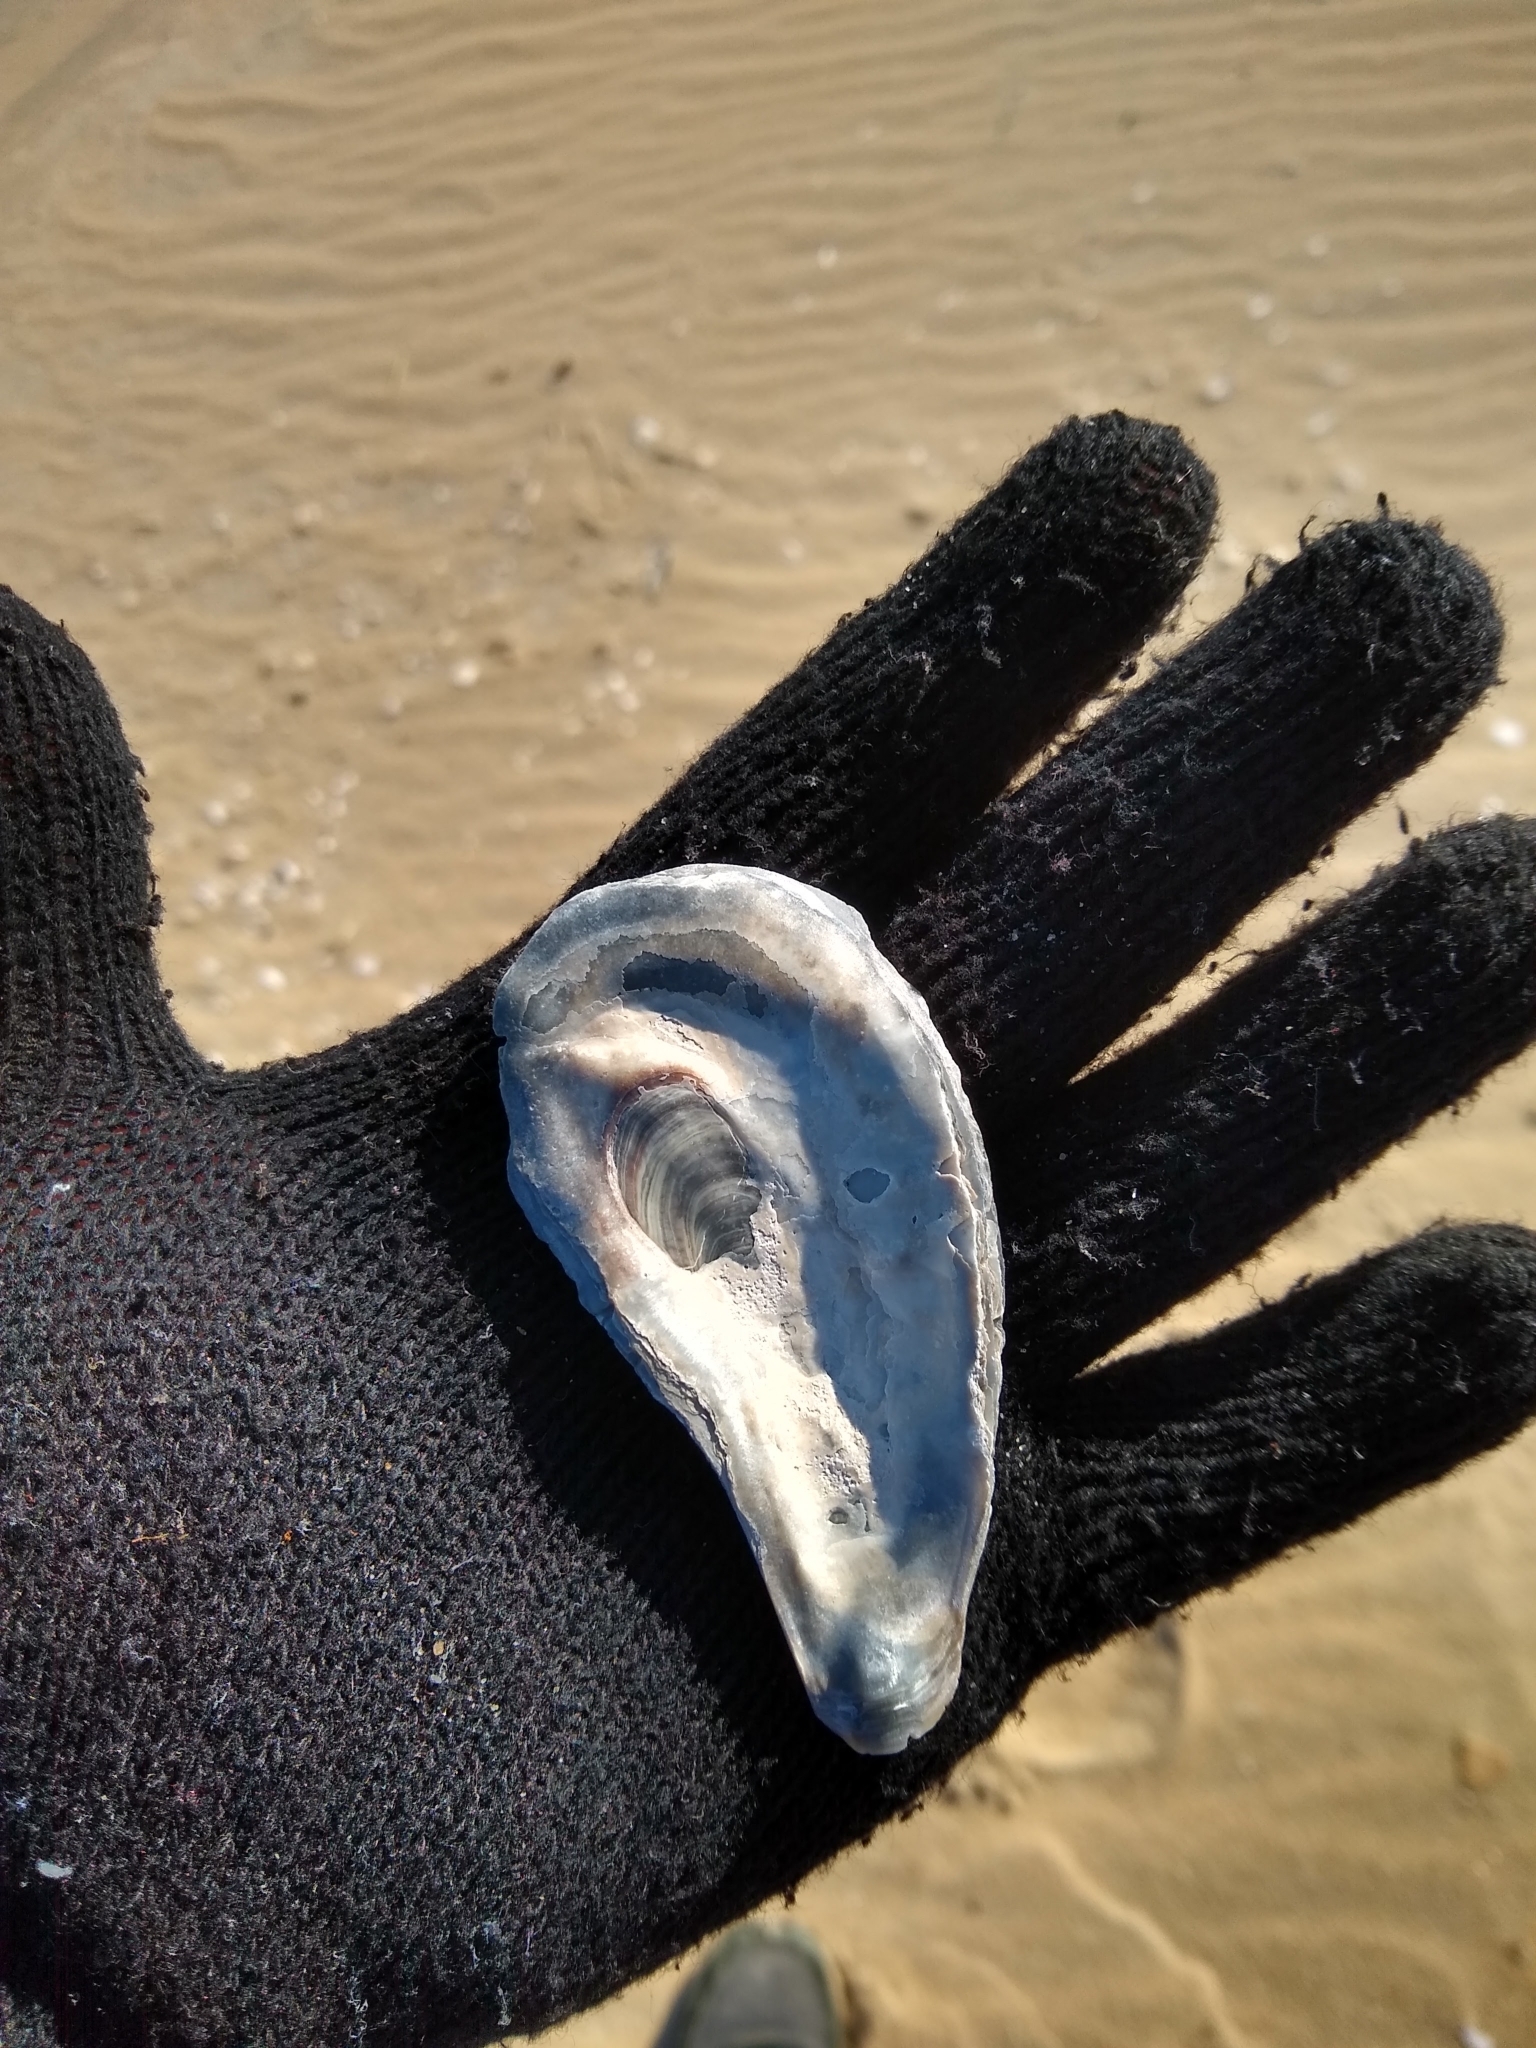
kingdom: Animalia
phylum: Mollusca
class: Bivalvia
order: Ostreida
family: Ostreidae
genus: Crassostrea
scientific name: Crassostrea virginica
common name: American oyster
